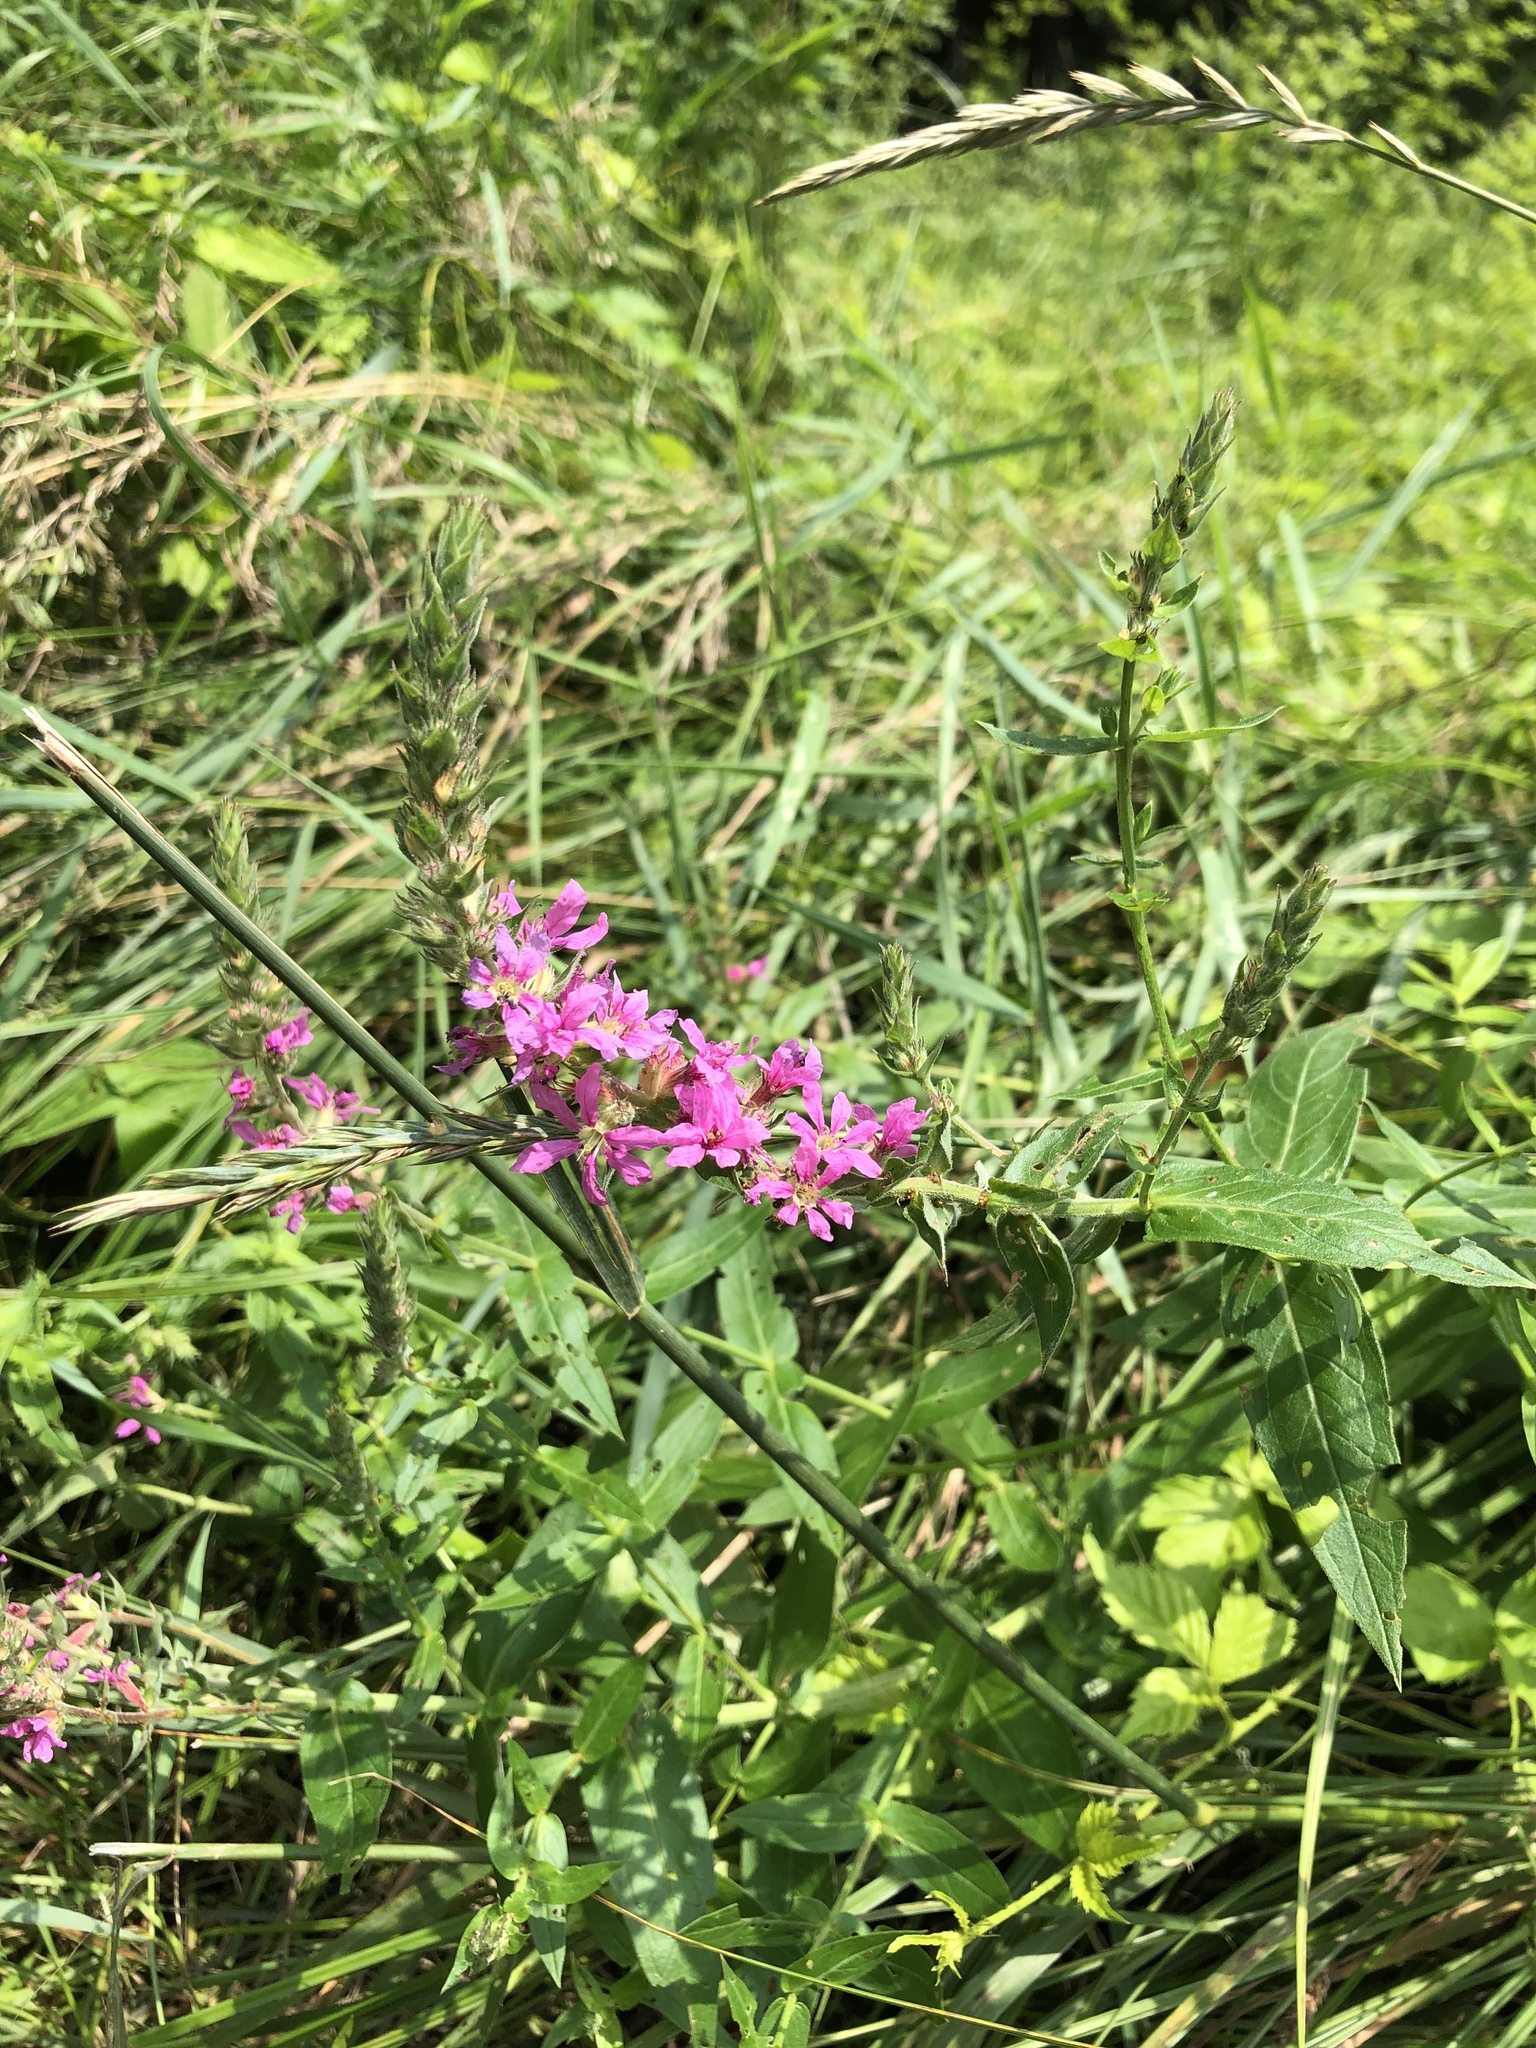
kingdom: Plantae
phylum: Tracheophyta
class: Magnoliopsida
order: Myrtales
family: Lythraceae
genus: Lythrum
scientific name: Lythrum salicaria
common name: Purple loosestrife
